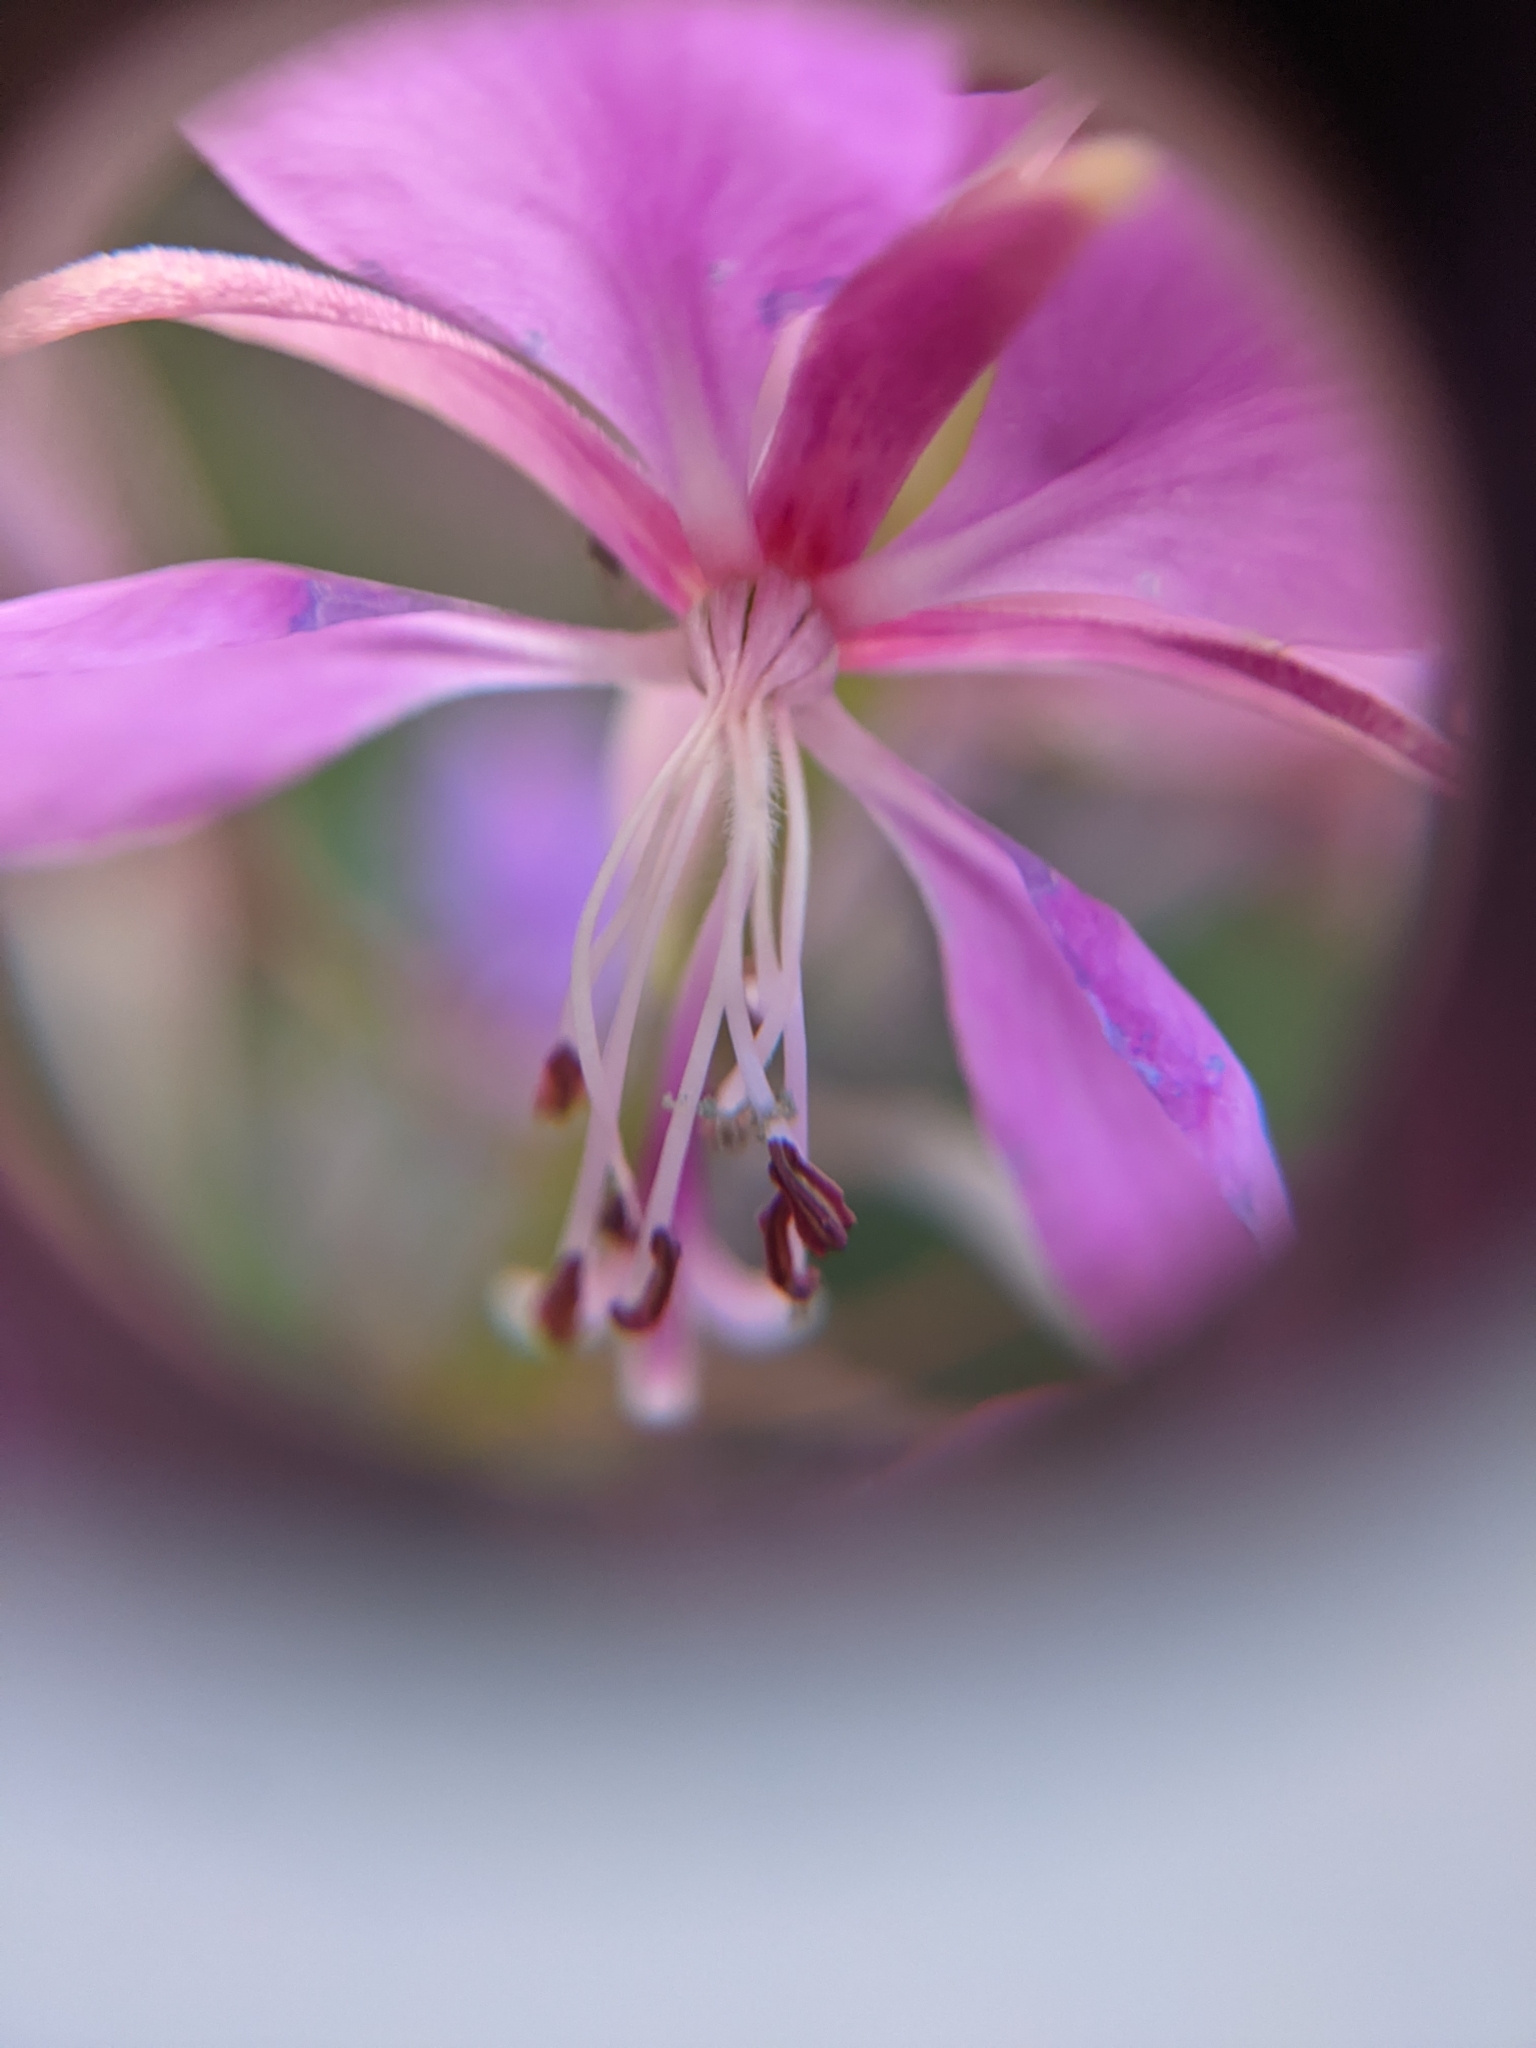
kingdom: Plantae
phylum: Tracheophyta
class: Magnoliopsida
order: Myrtales
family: Onagraceae
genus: Chamaenerion
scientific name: Chamaenerion angustifolium
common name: Fireweed
